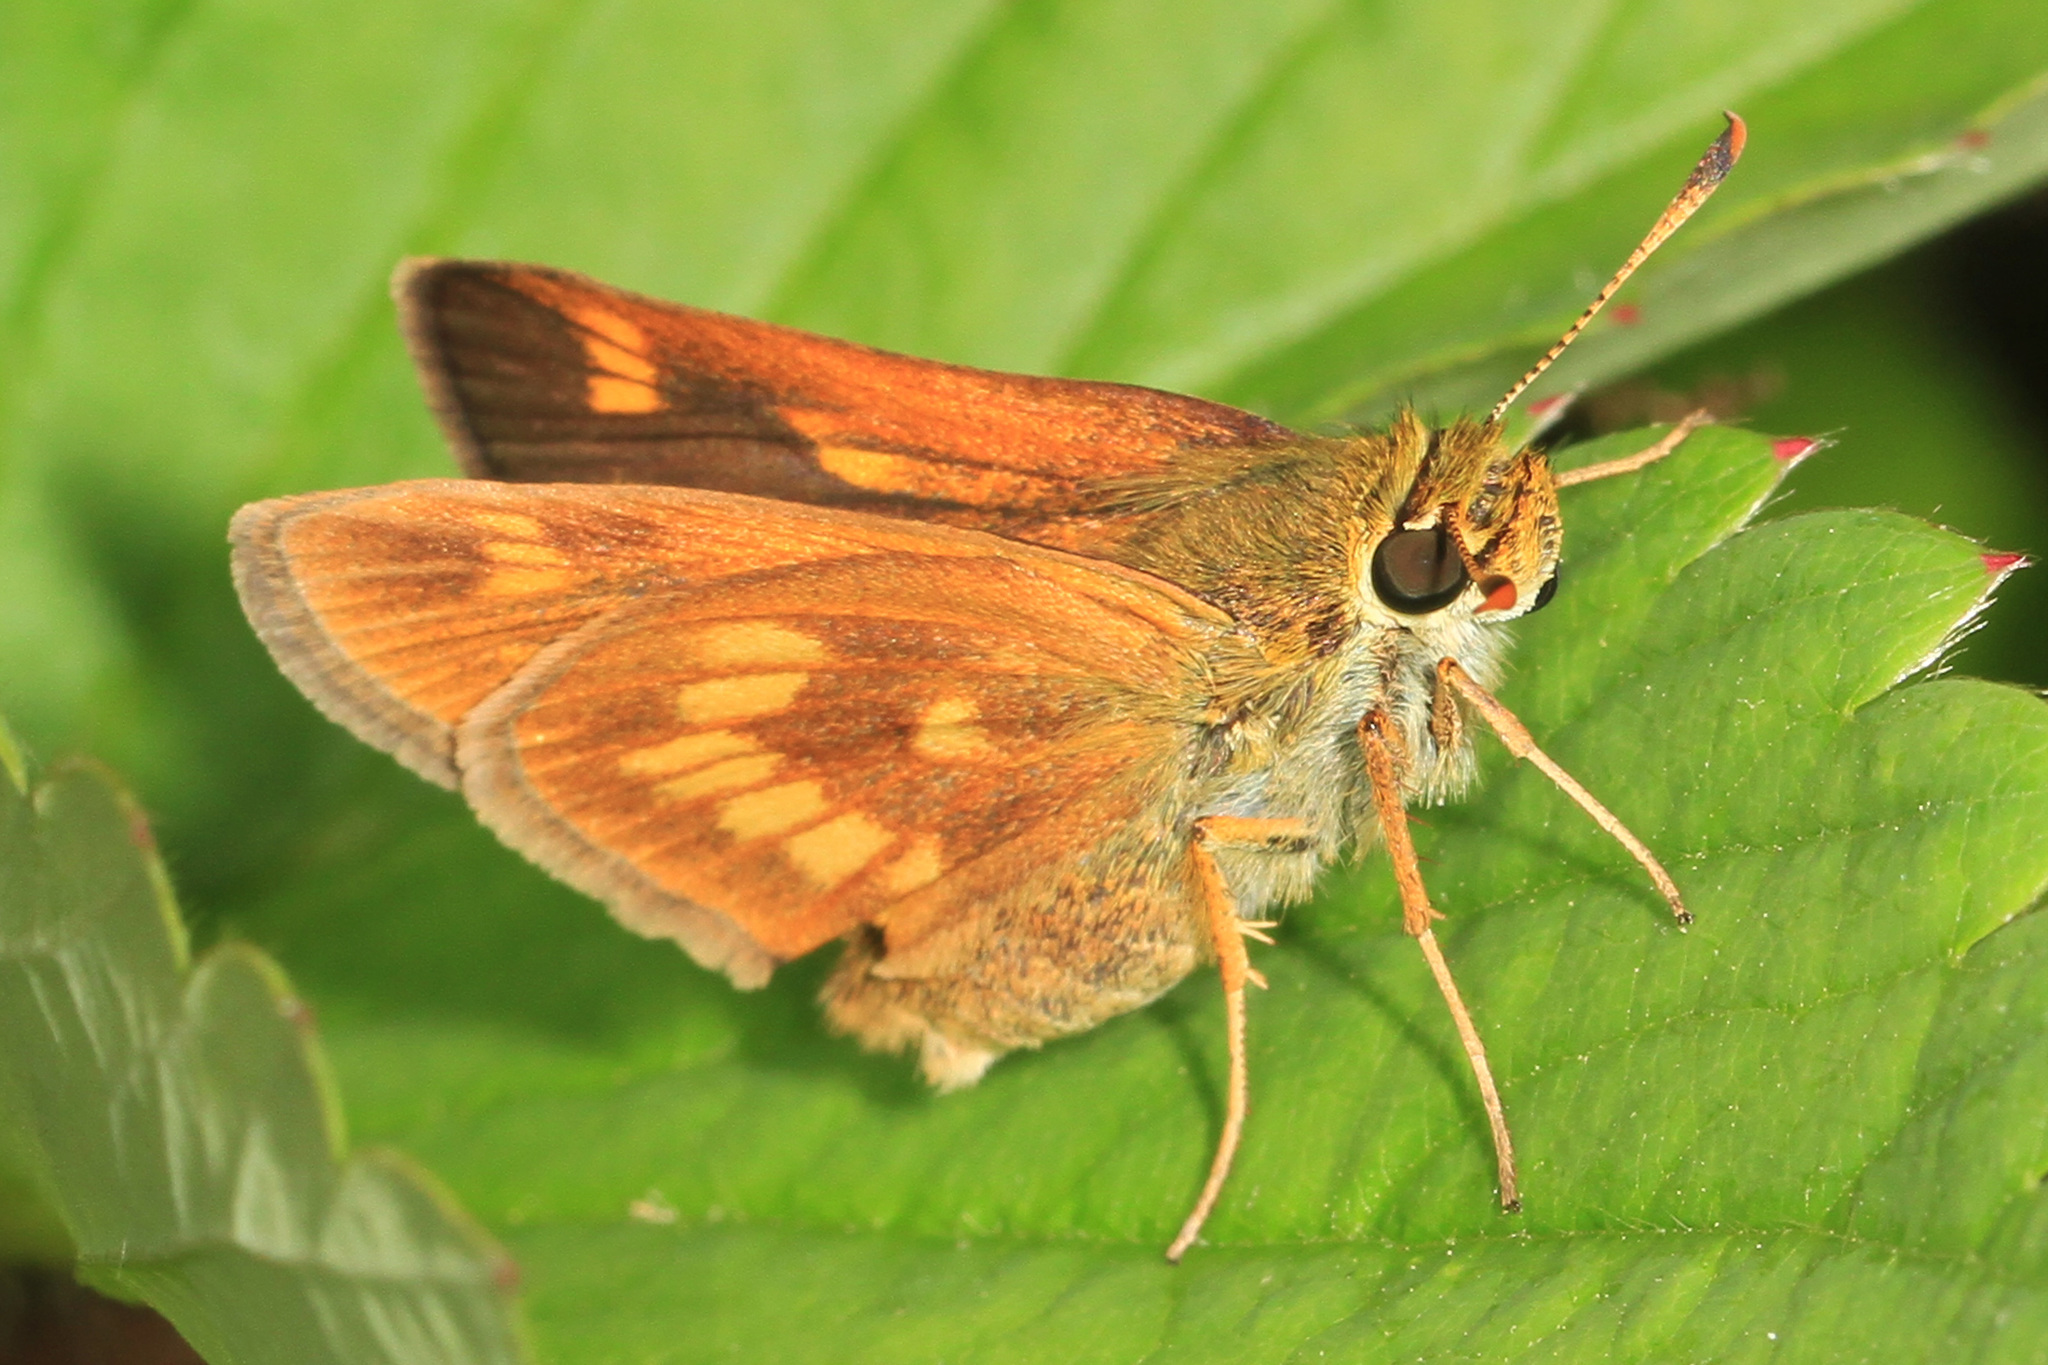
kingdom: Animalia
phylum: Arthropoda
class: Insecta
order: Lepidoptera
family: Hesperiidae
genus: Polites
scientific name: Polites mystic
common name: Long dash
